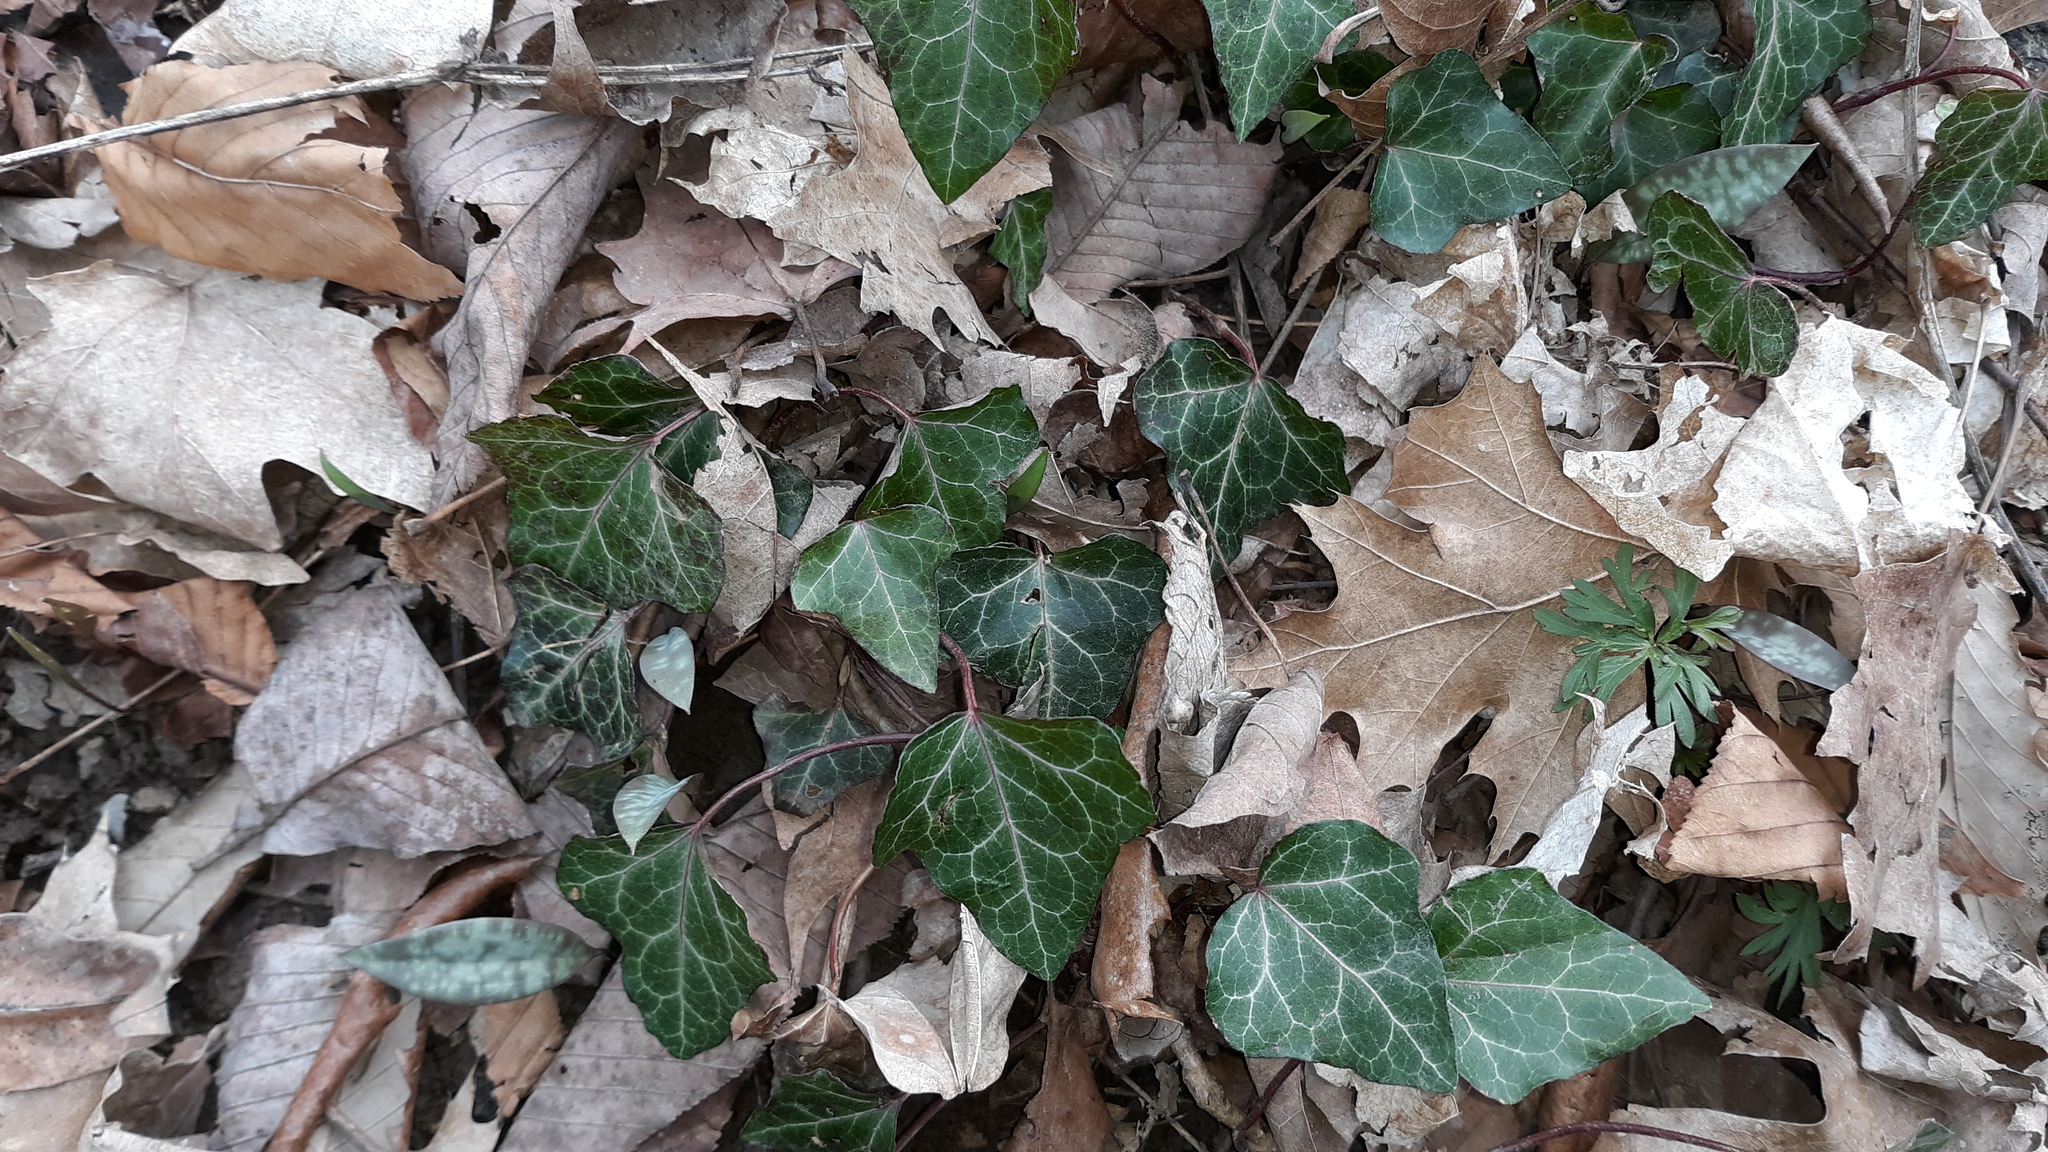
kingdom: Plantae
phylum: Tracheophyta
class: Magnoliopsida
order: Apiales
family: Araliaceae
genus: Hedera
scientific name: Hedera helix
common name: Ivy
